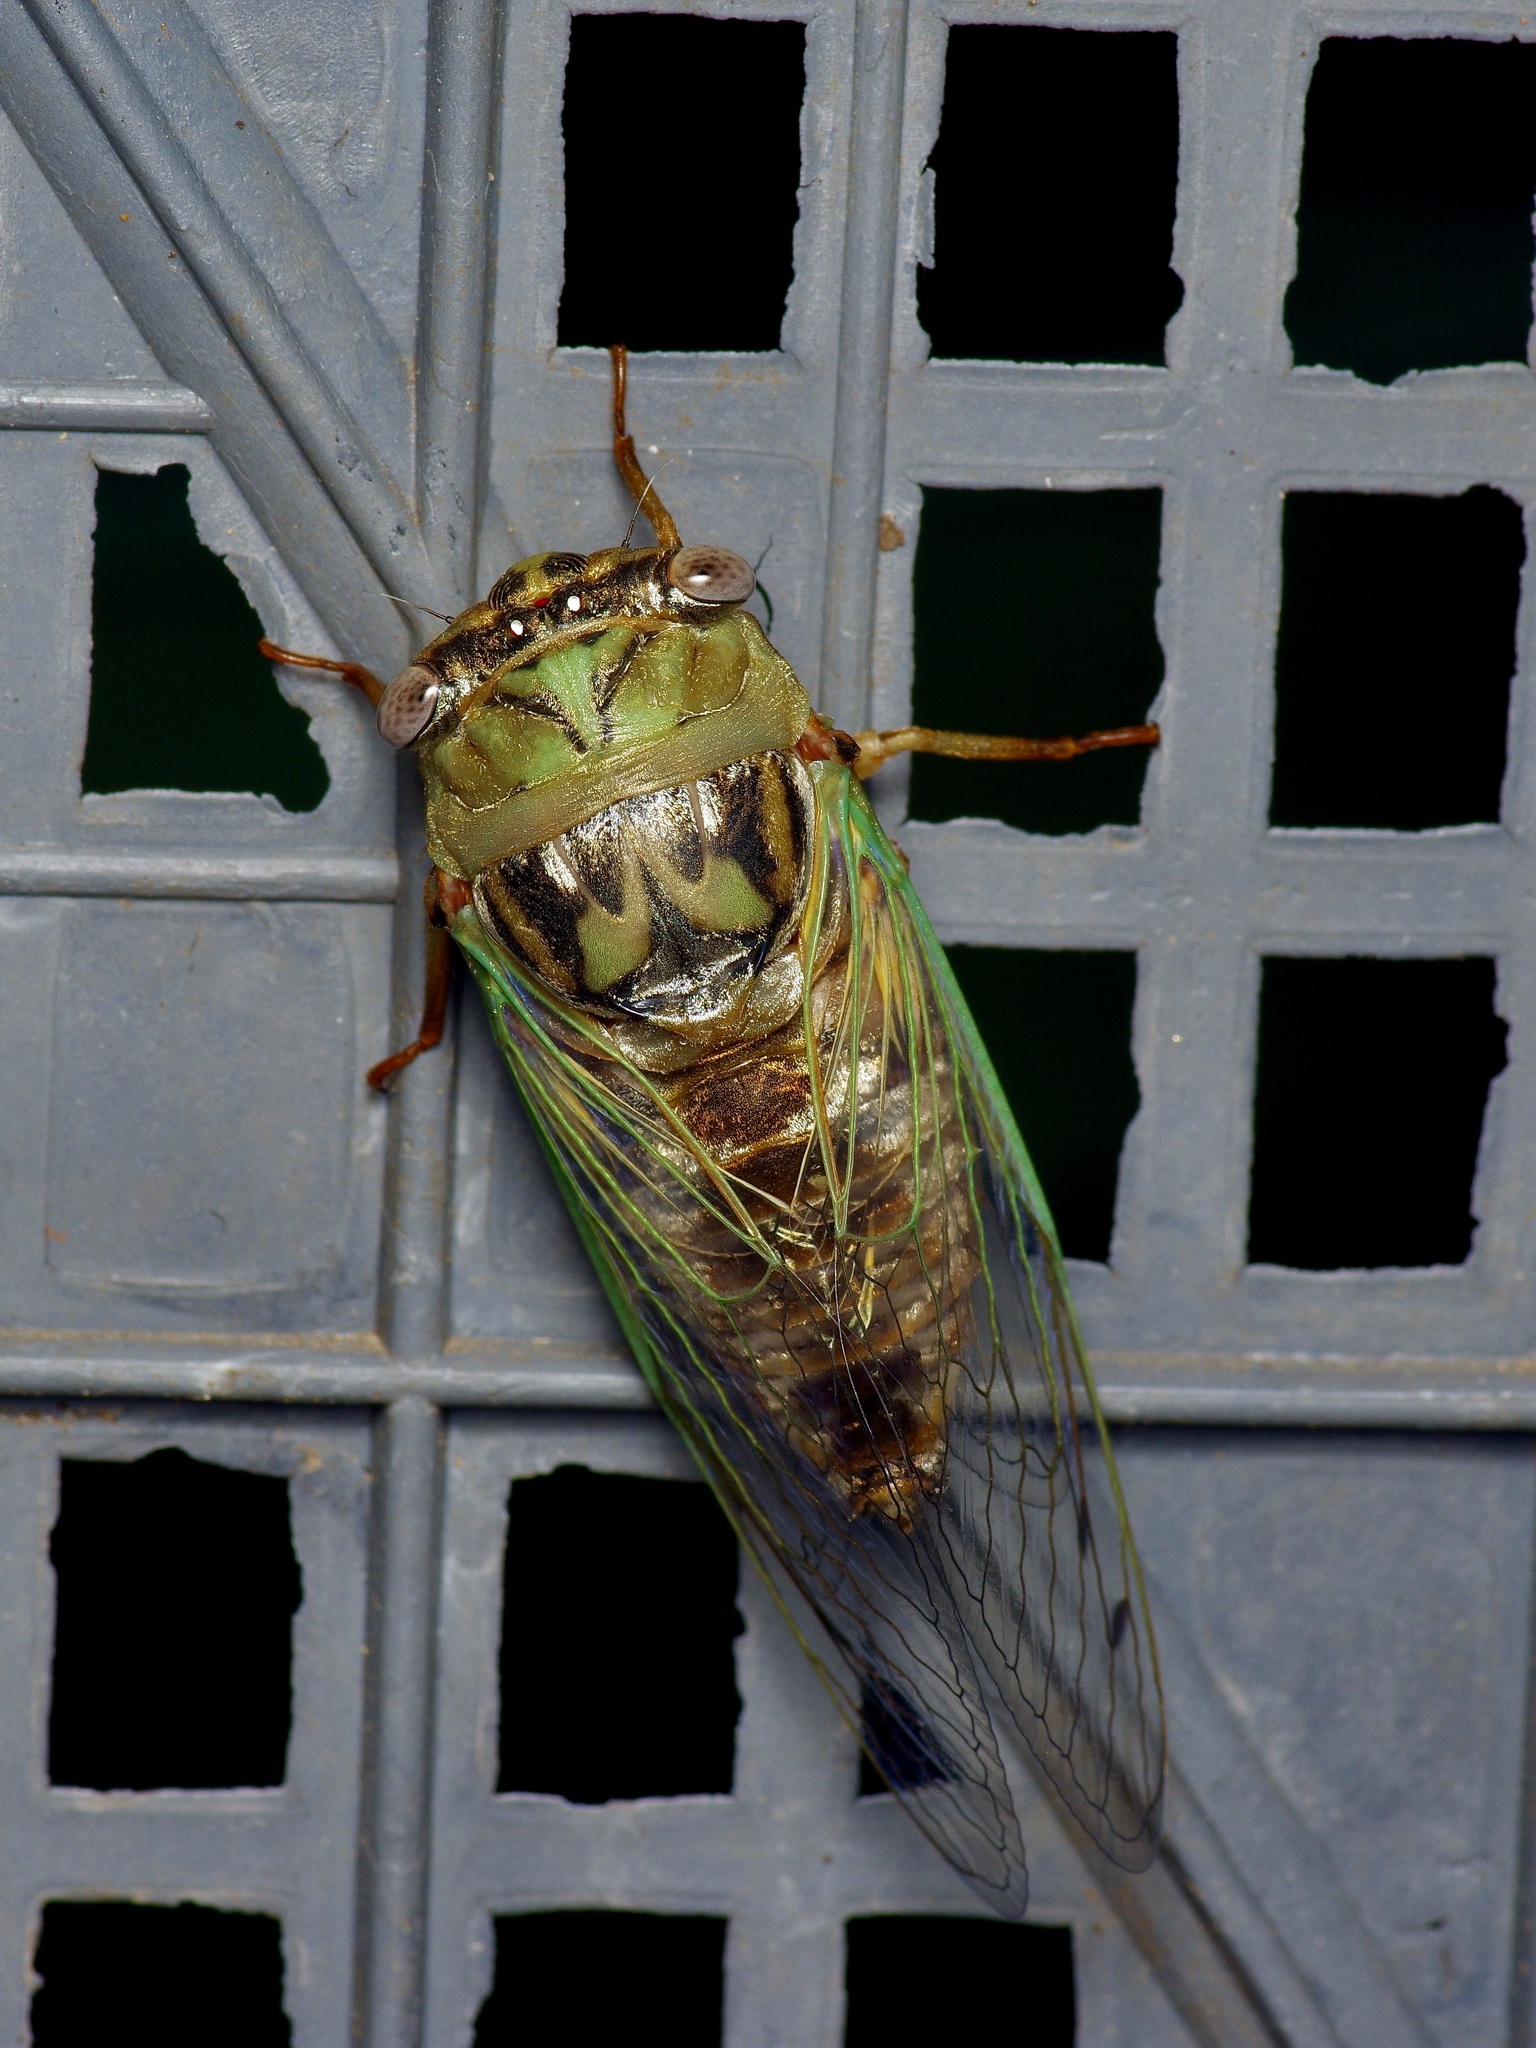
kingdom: Animalia
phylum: Arthropoda
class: Insecta
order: Hemiptera
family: Cicadidae
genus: Megatibicen
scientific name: Megatibicen resh
